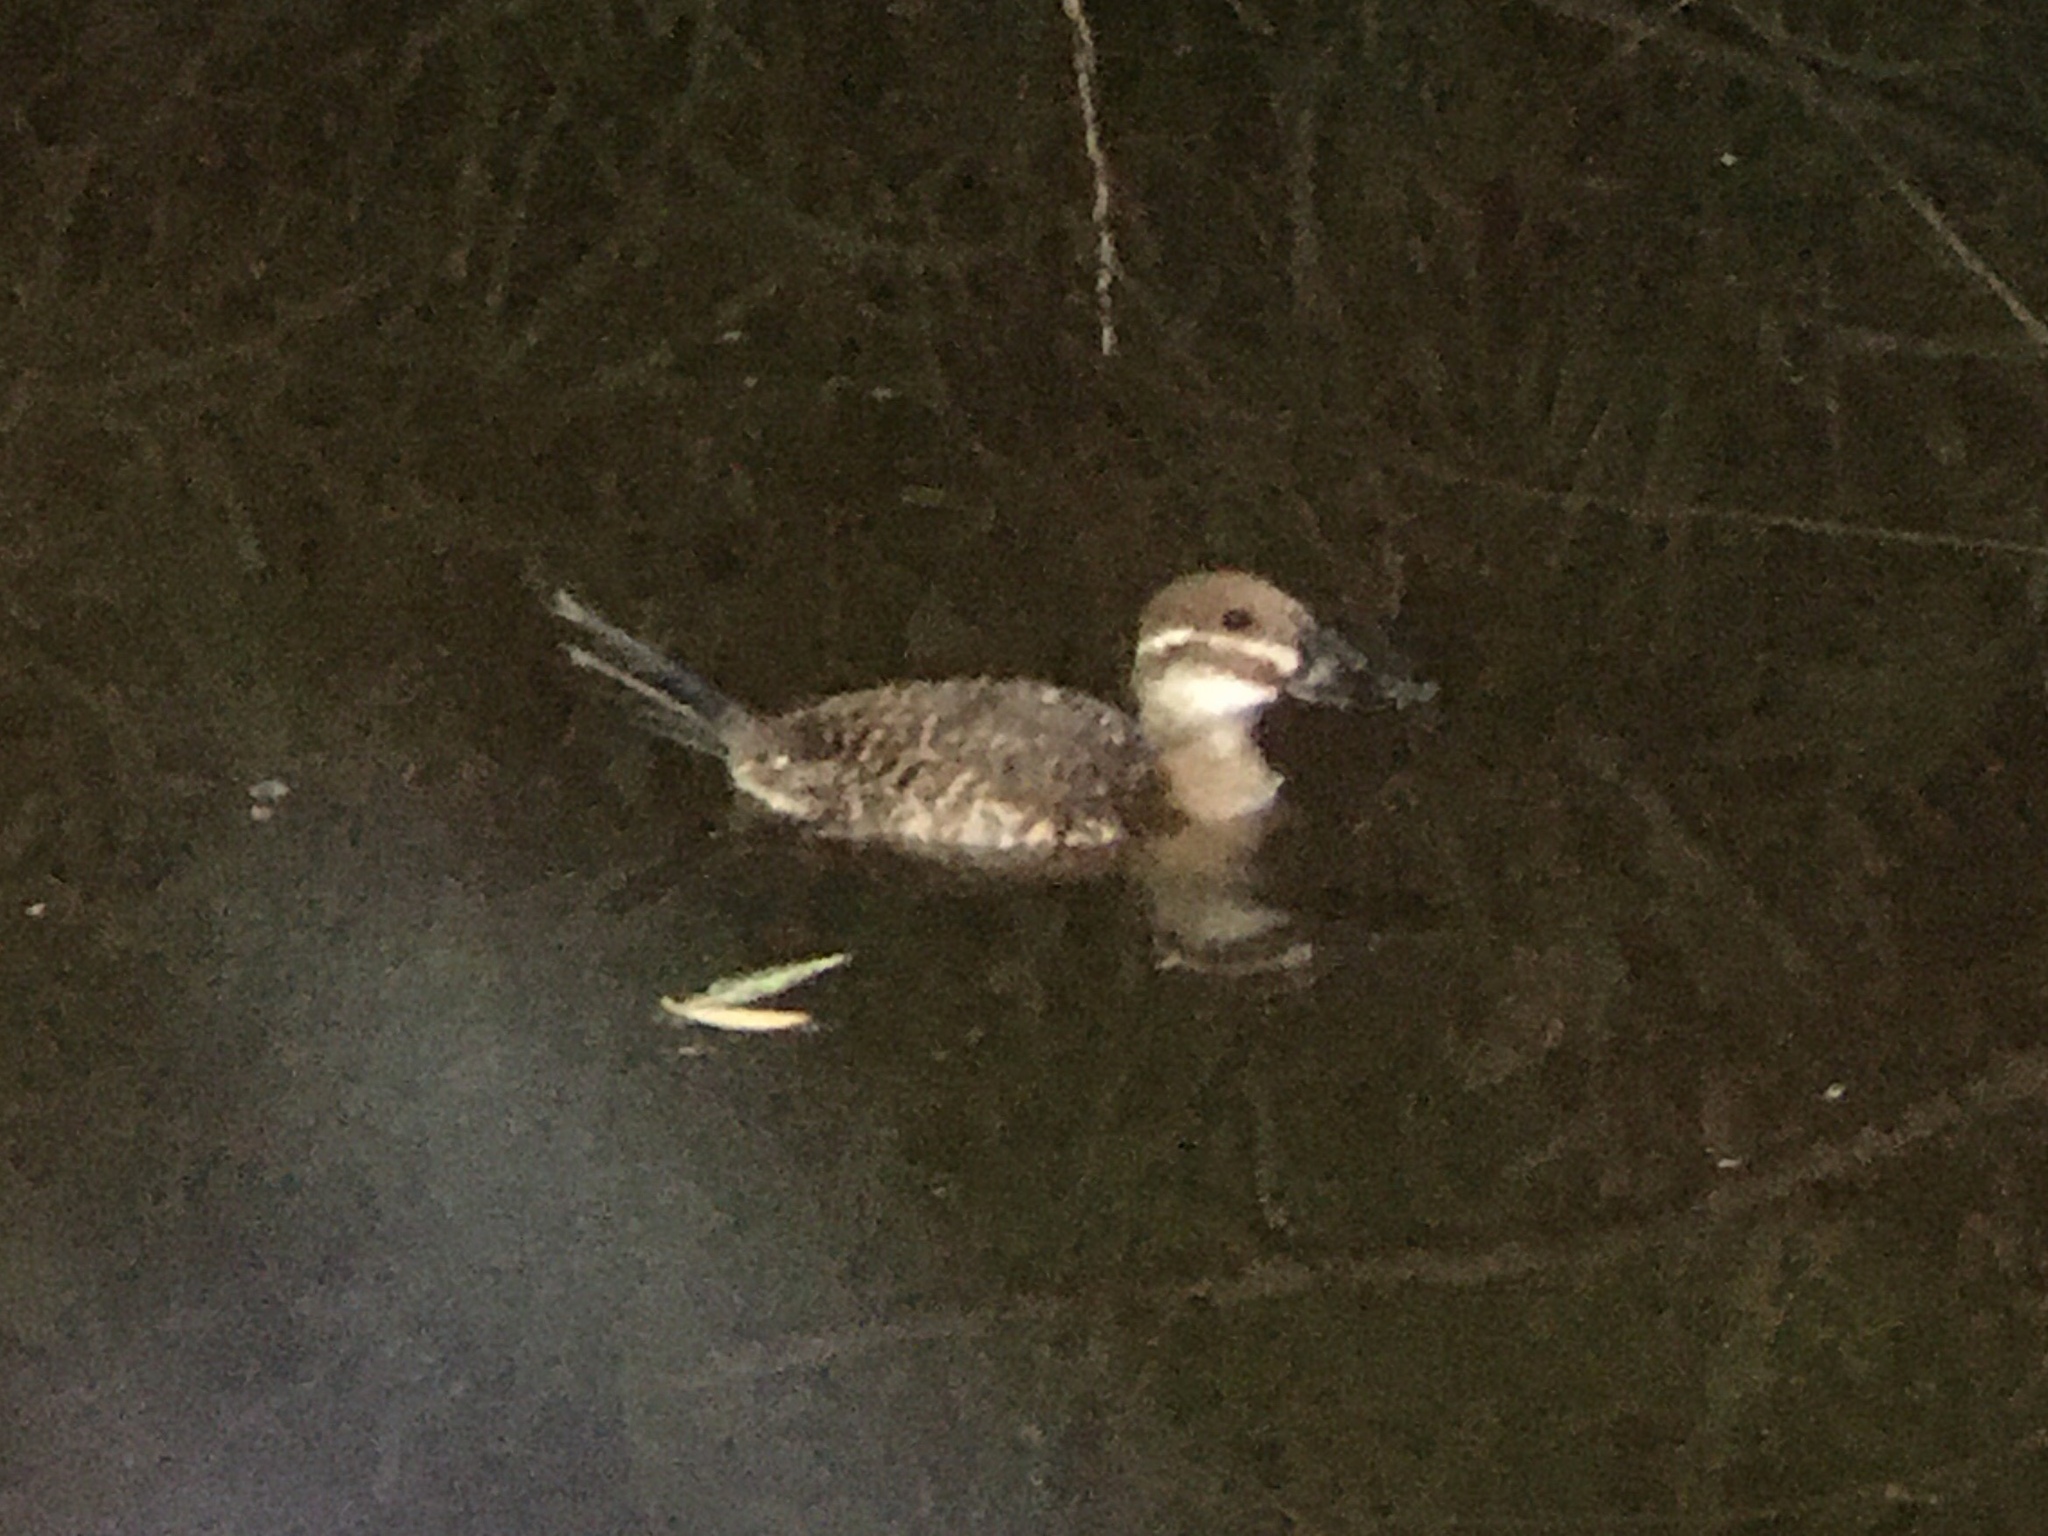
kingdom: Animalia
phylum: Chordata
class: Aves
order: Anseriformes
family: Anatidae
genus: Oxyura
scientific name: Oxyura vittata
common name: Lake duck
